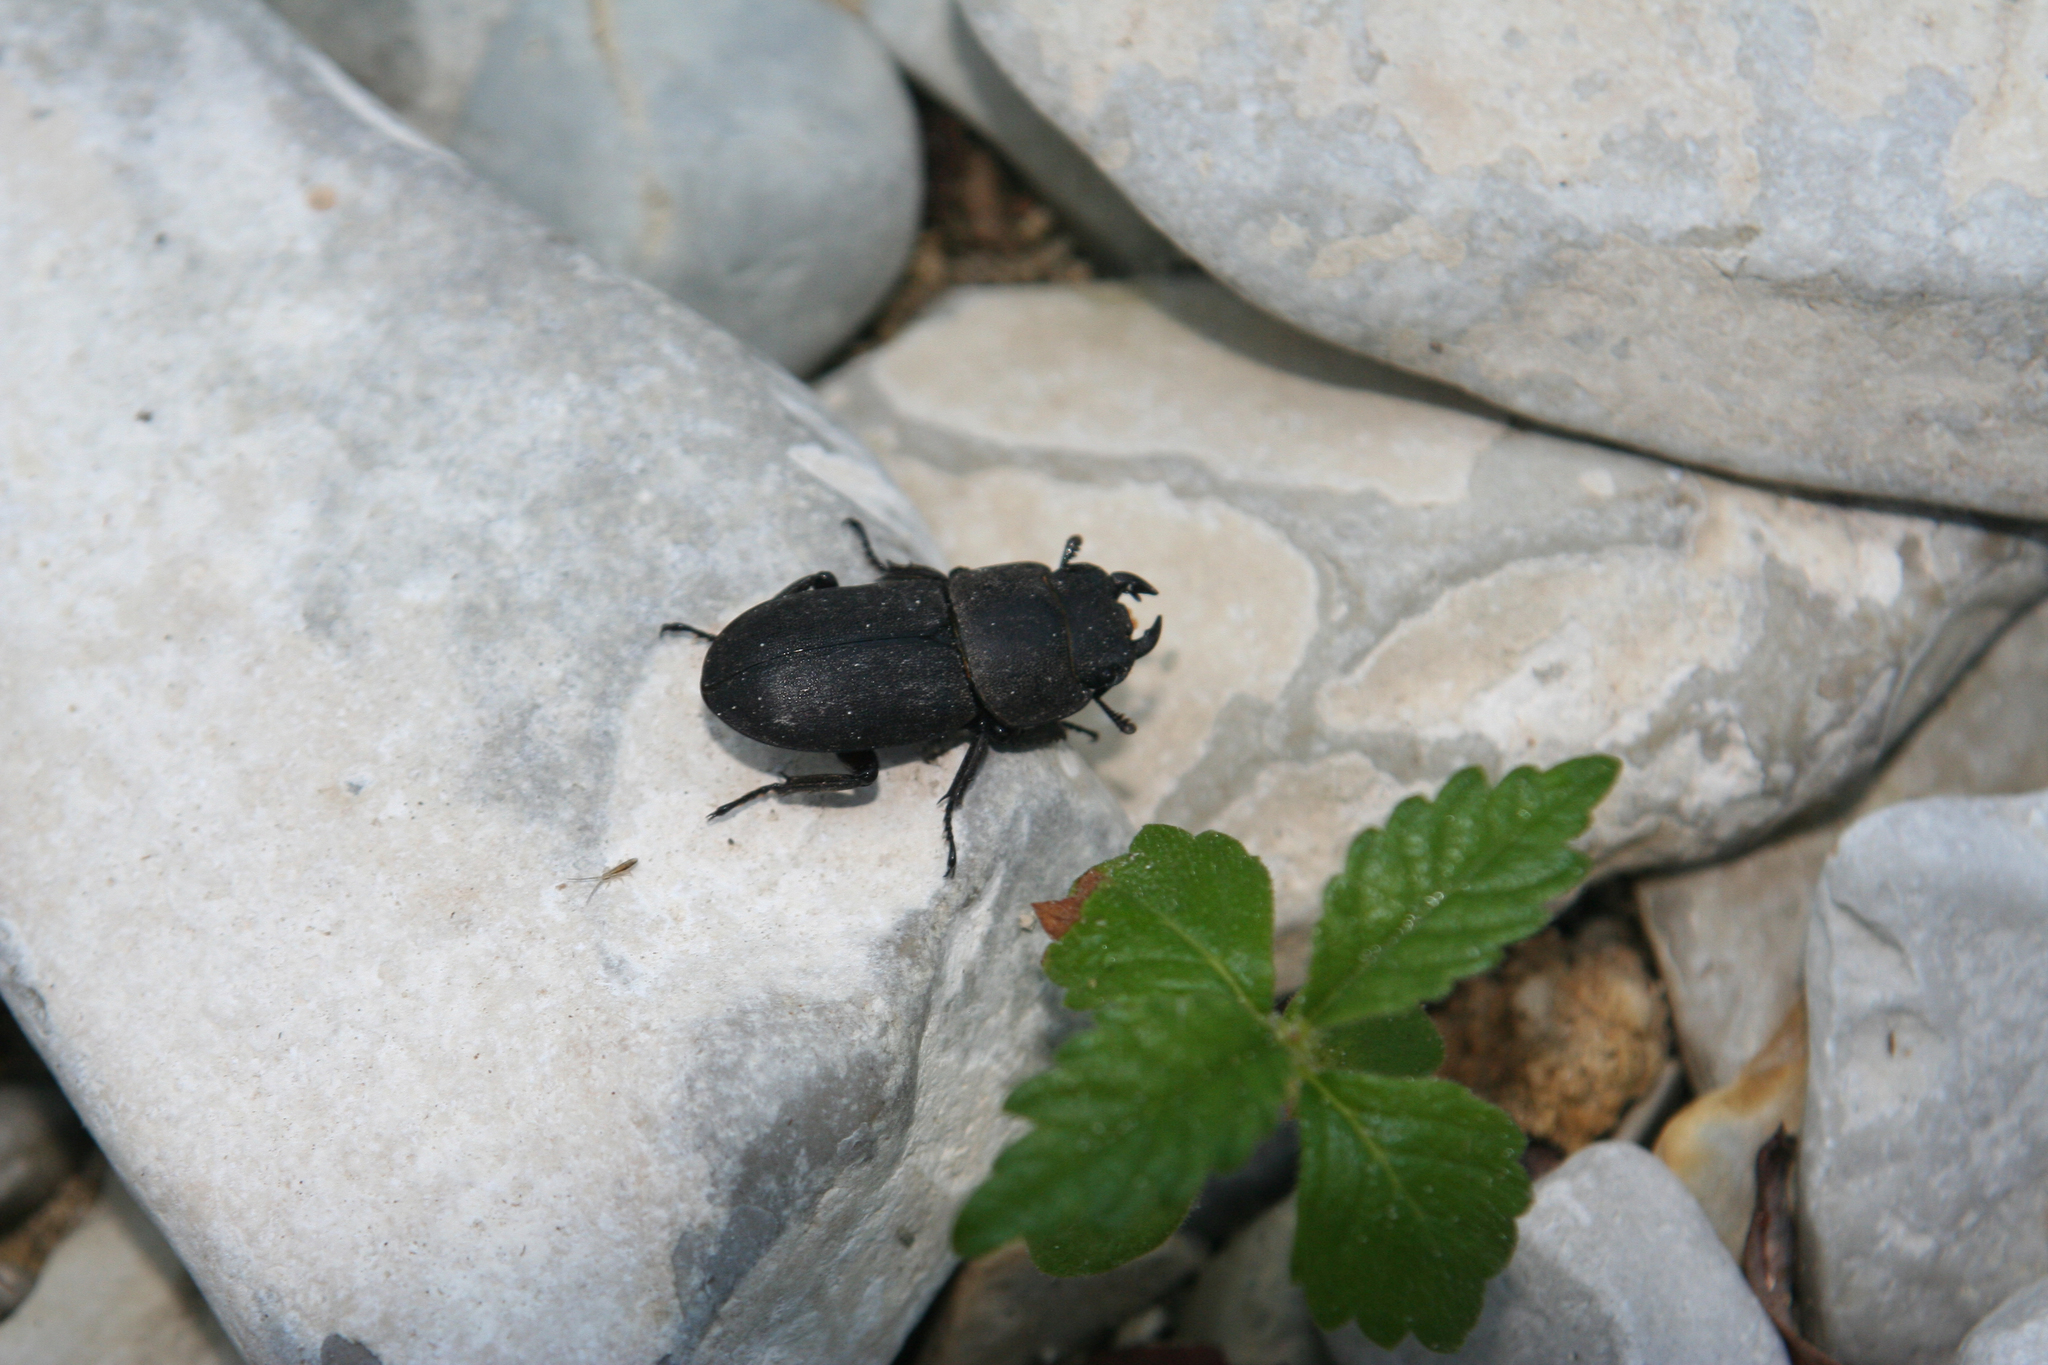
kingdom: Animalia
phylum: Arthropoda
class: Insecta
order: Coleoptera
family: Lucanidae
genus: Dorcus
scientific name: Dorcus parallelipipedus
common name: Lesser stag beetle
